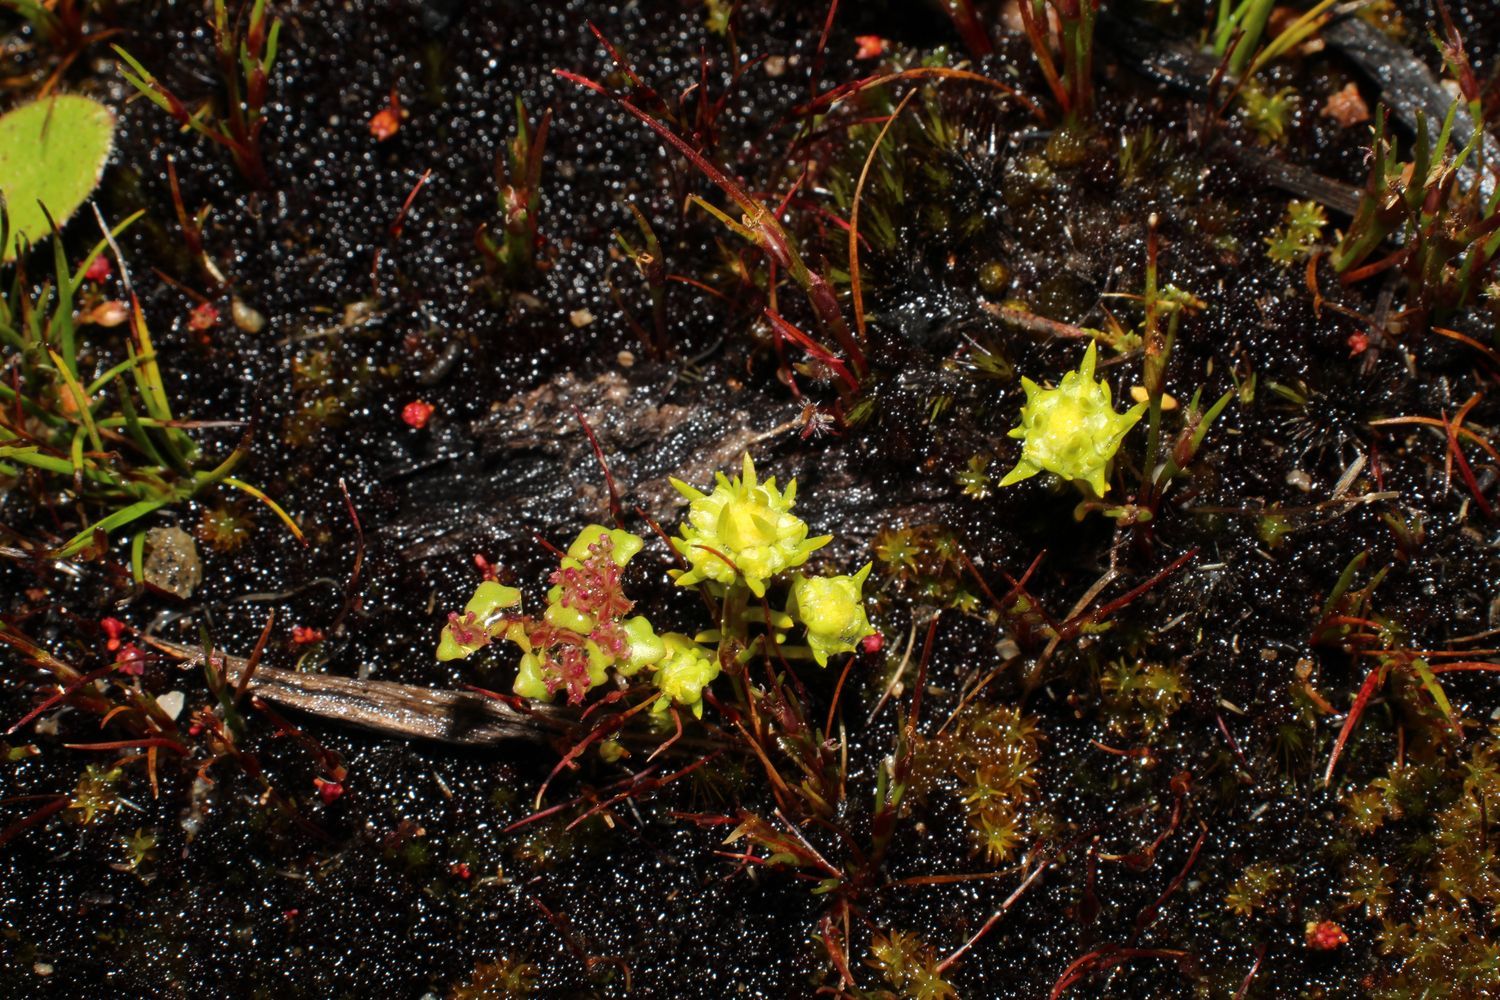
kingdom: Plantae
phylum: Tracheophyta
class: Magnoliopsida
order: Asterales
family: Asteraceae
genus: Siloxerus
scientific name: Siloxerus multiflorus
